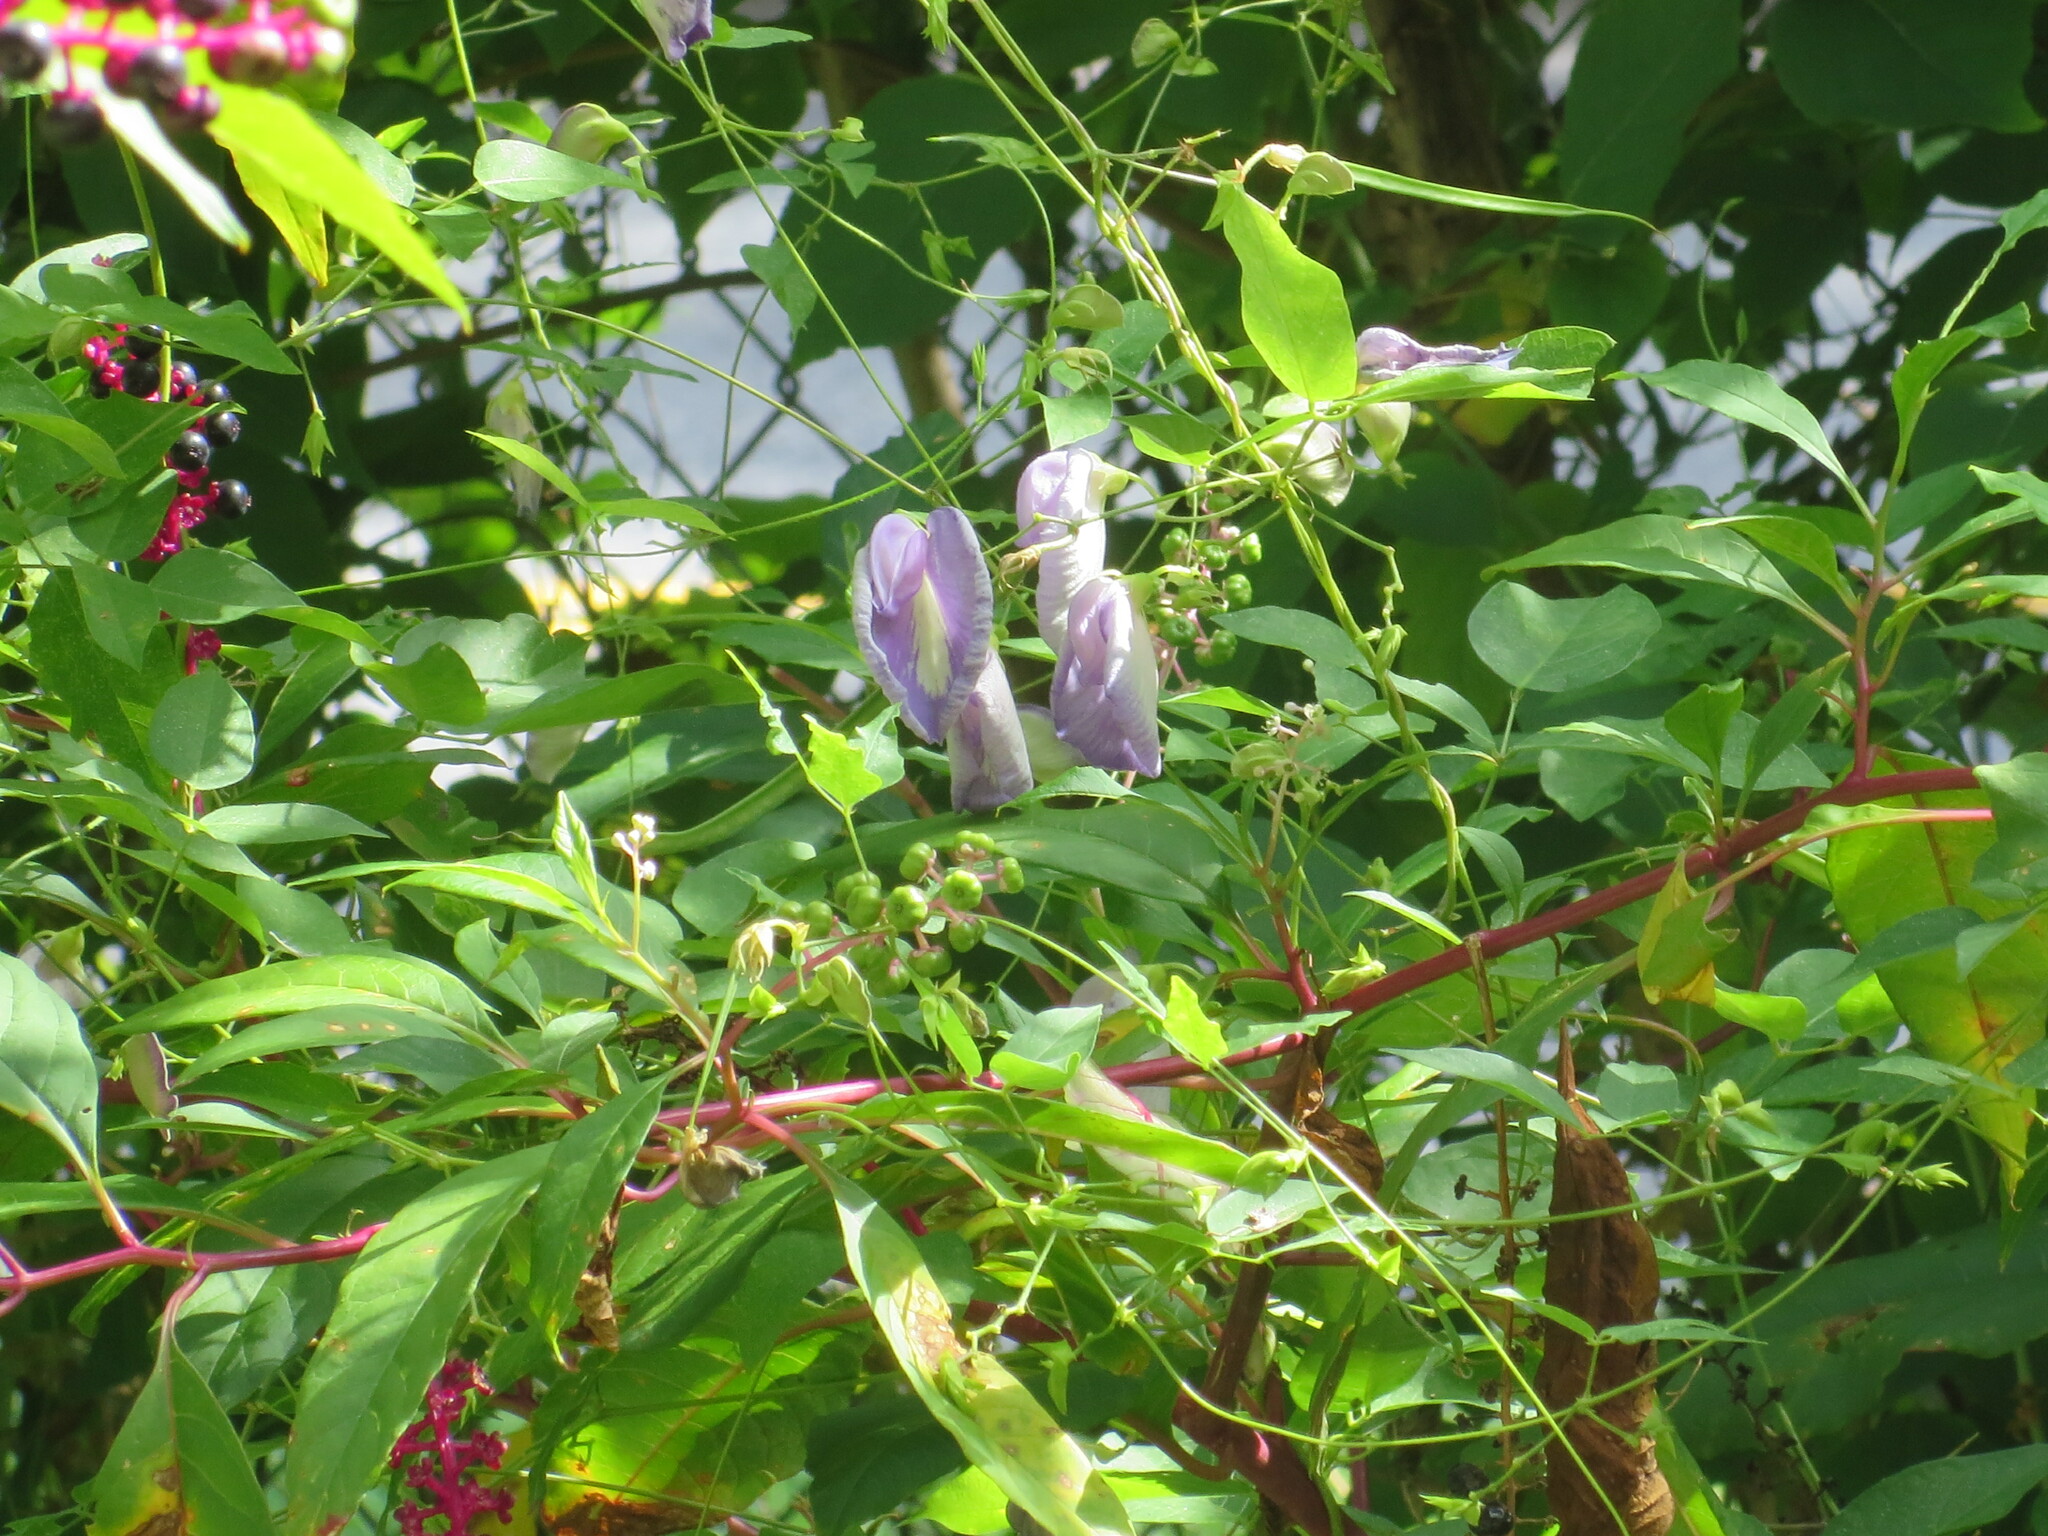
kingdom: Plantae
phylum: Tracheophyta
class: Magnoliopsida
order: Fabales
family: Fabaceae
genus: Centrosema
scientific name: Centrosema virginianum
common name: Butterfly-pea
